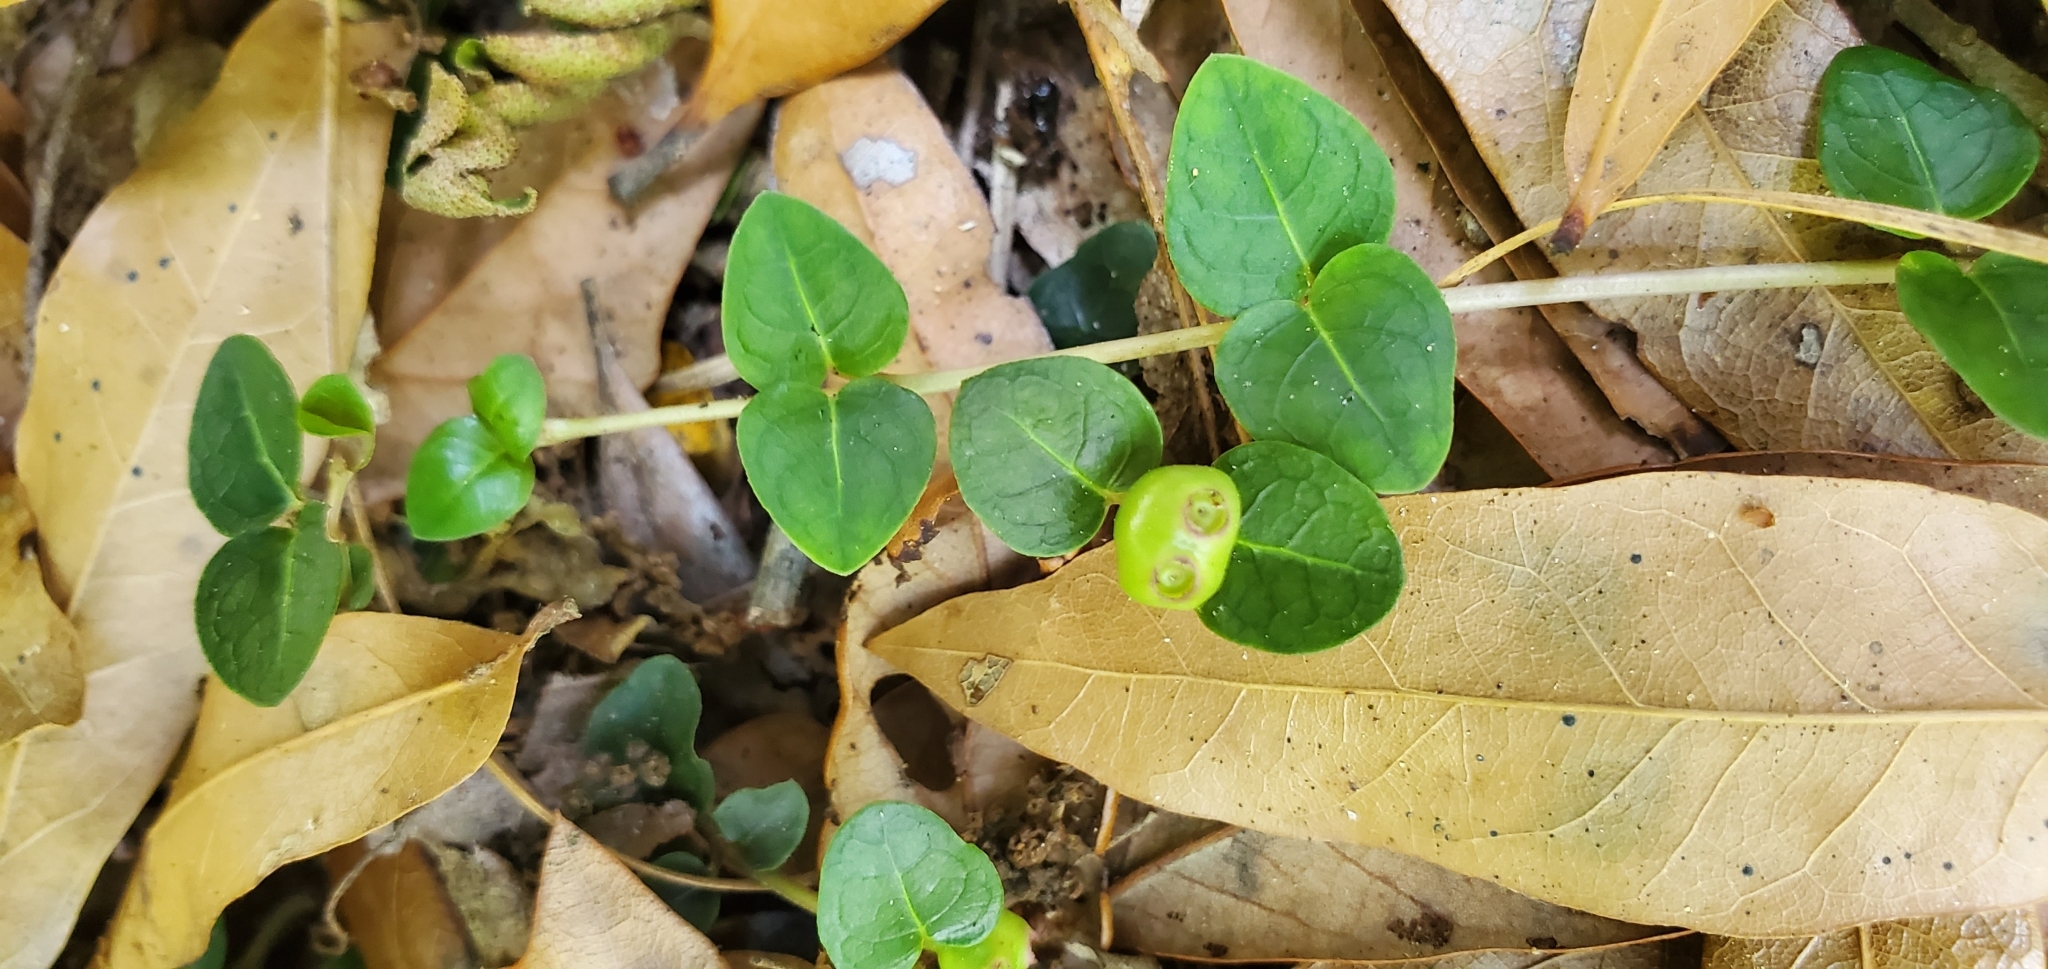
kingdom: Plantae
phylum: Tracheophyta
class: Magnoliopsida
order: Gentianales
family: Rubiaceae
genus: Mitchella
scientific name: Mitchella repens
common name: Partridge-berry
